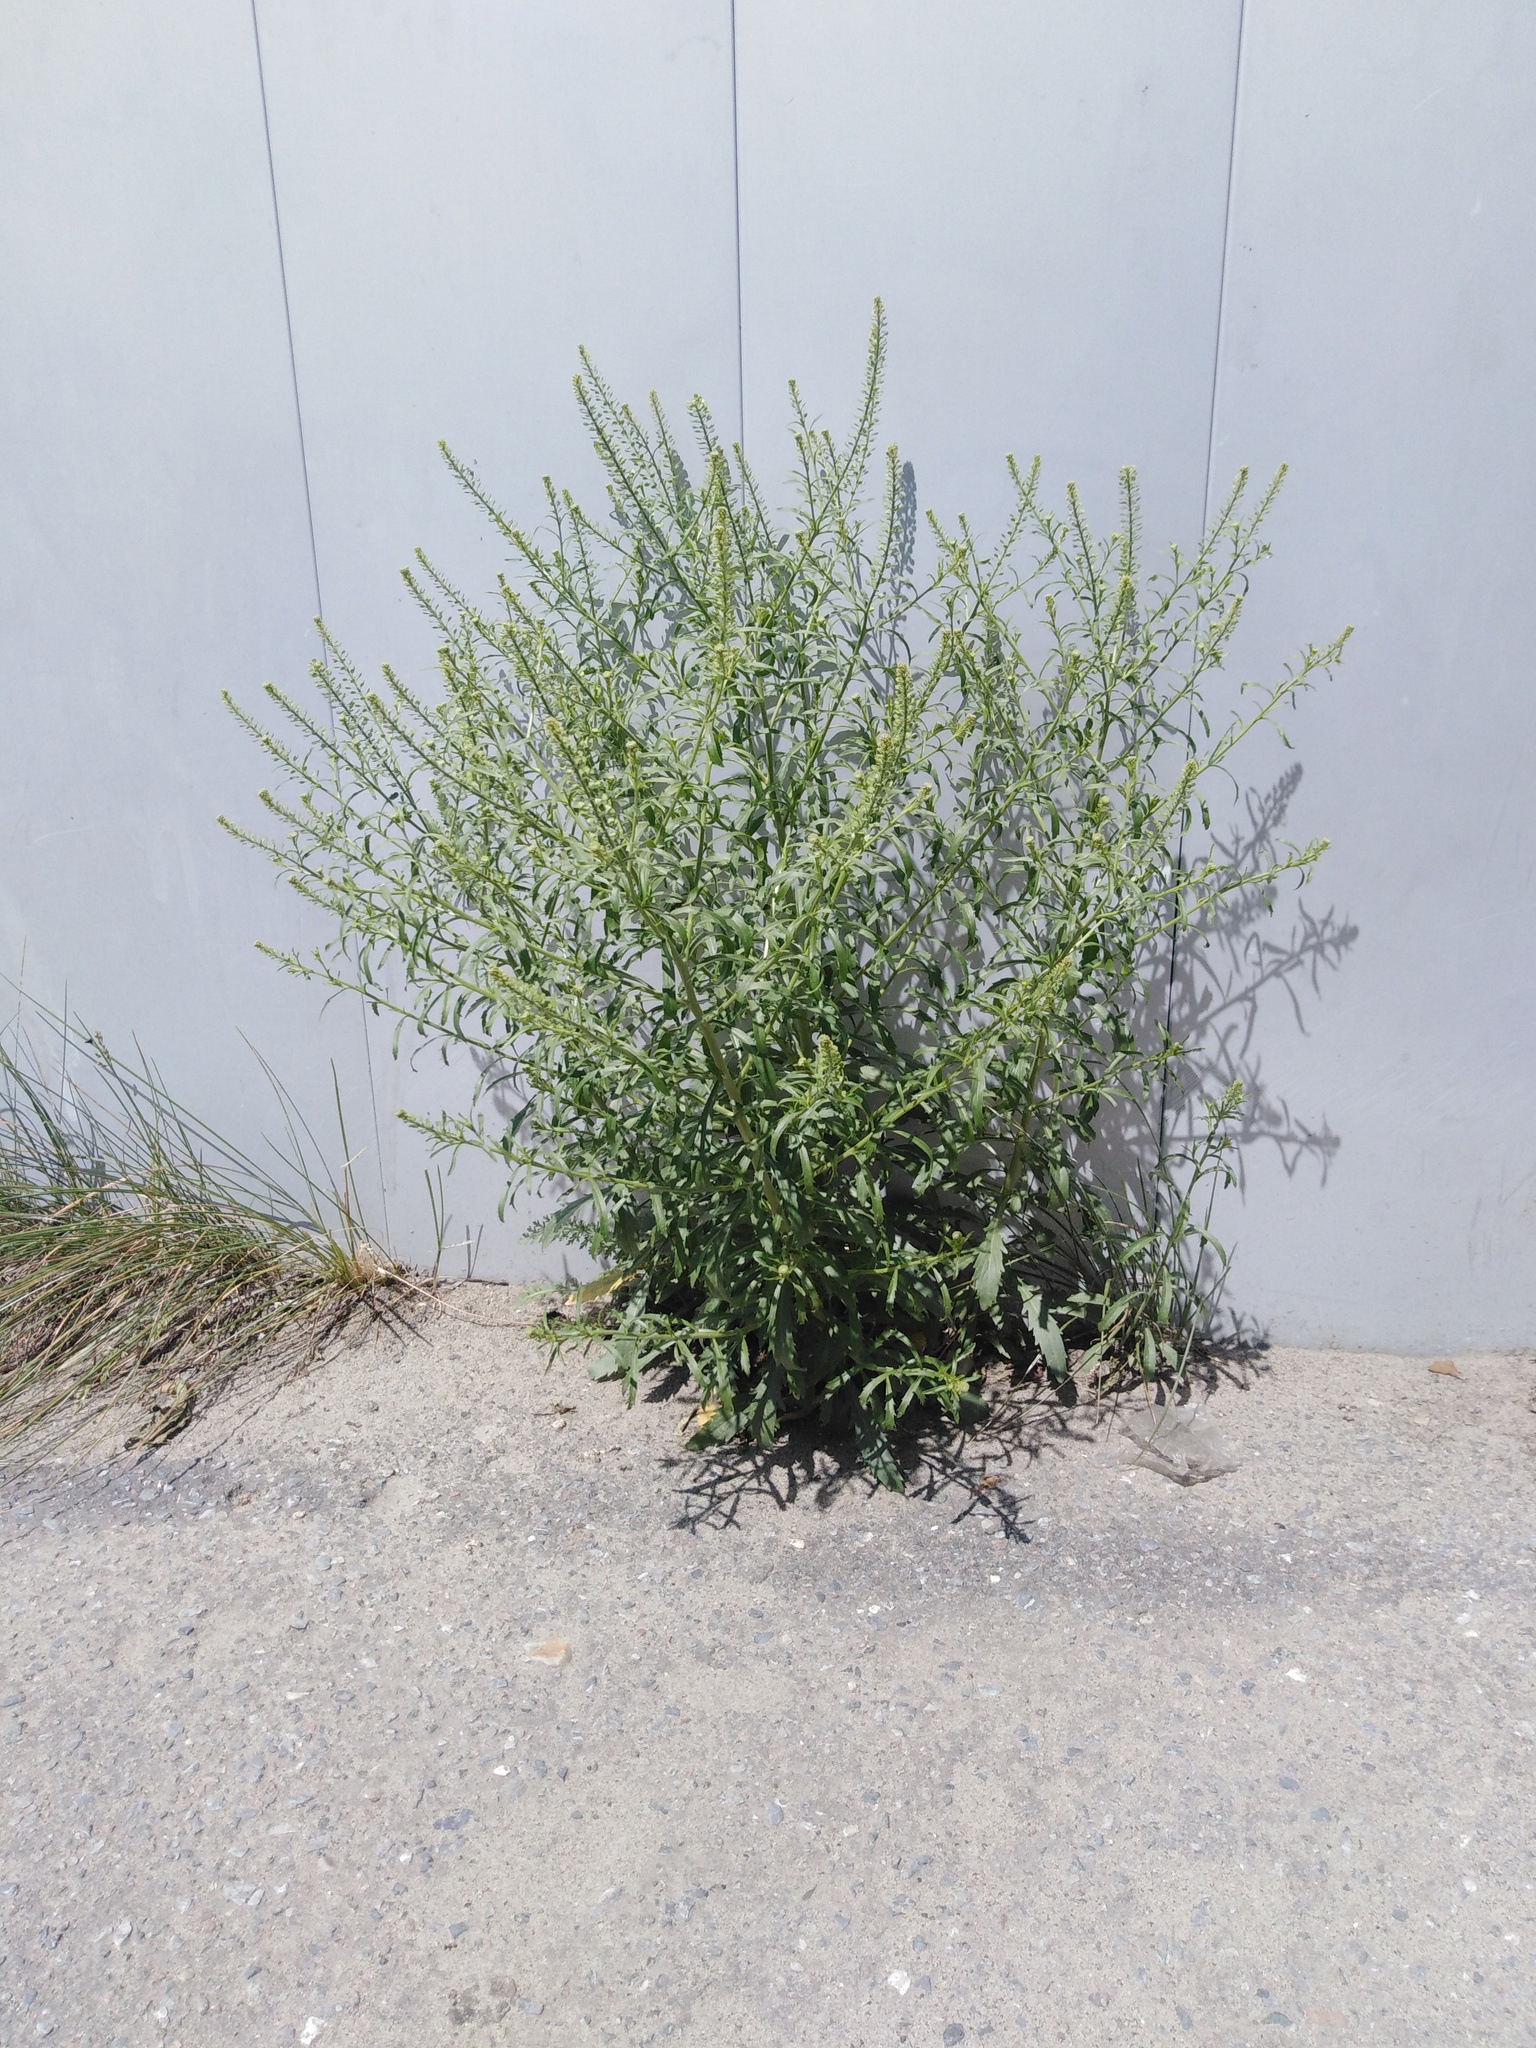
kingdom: Plantae
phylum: Tracheophyta
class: Magnoliopsida
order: Brassicales
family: Brassicaceae
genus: Lepidium
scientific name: Lepidium densiflorum
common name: Miner's pepperwort
